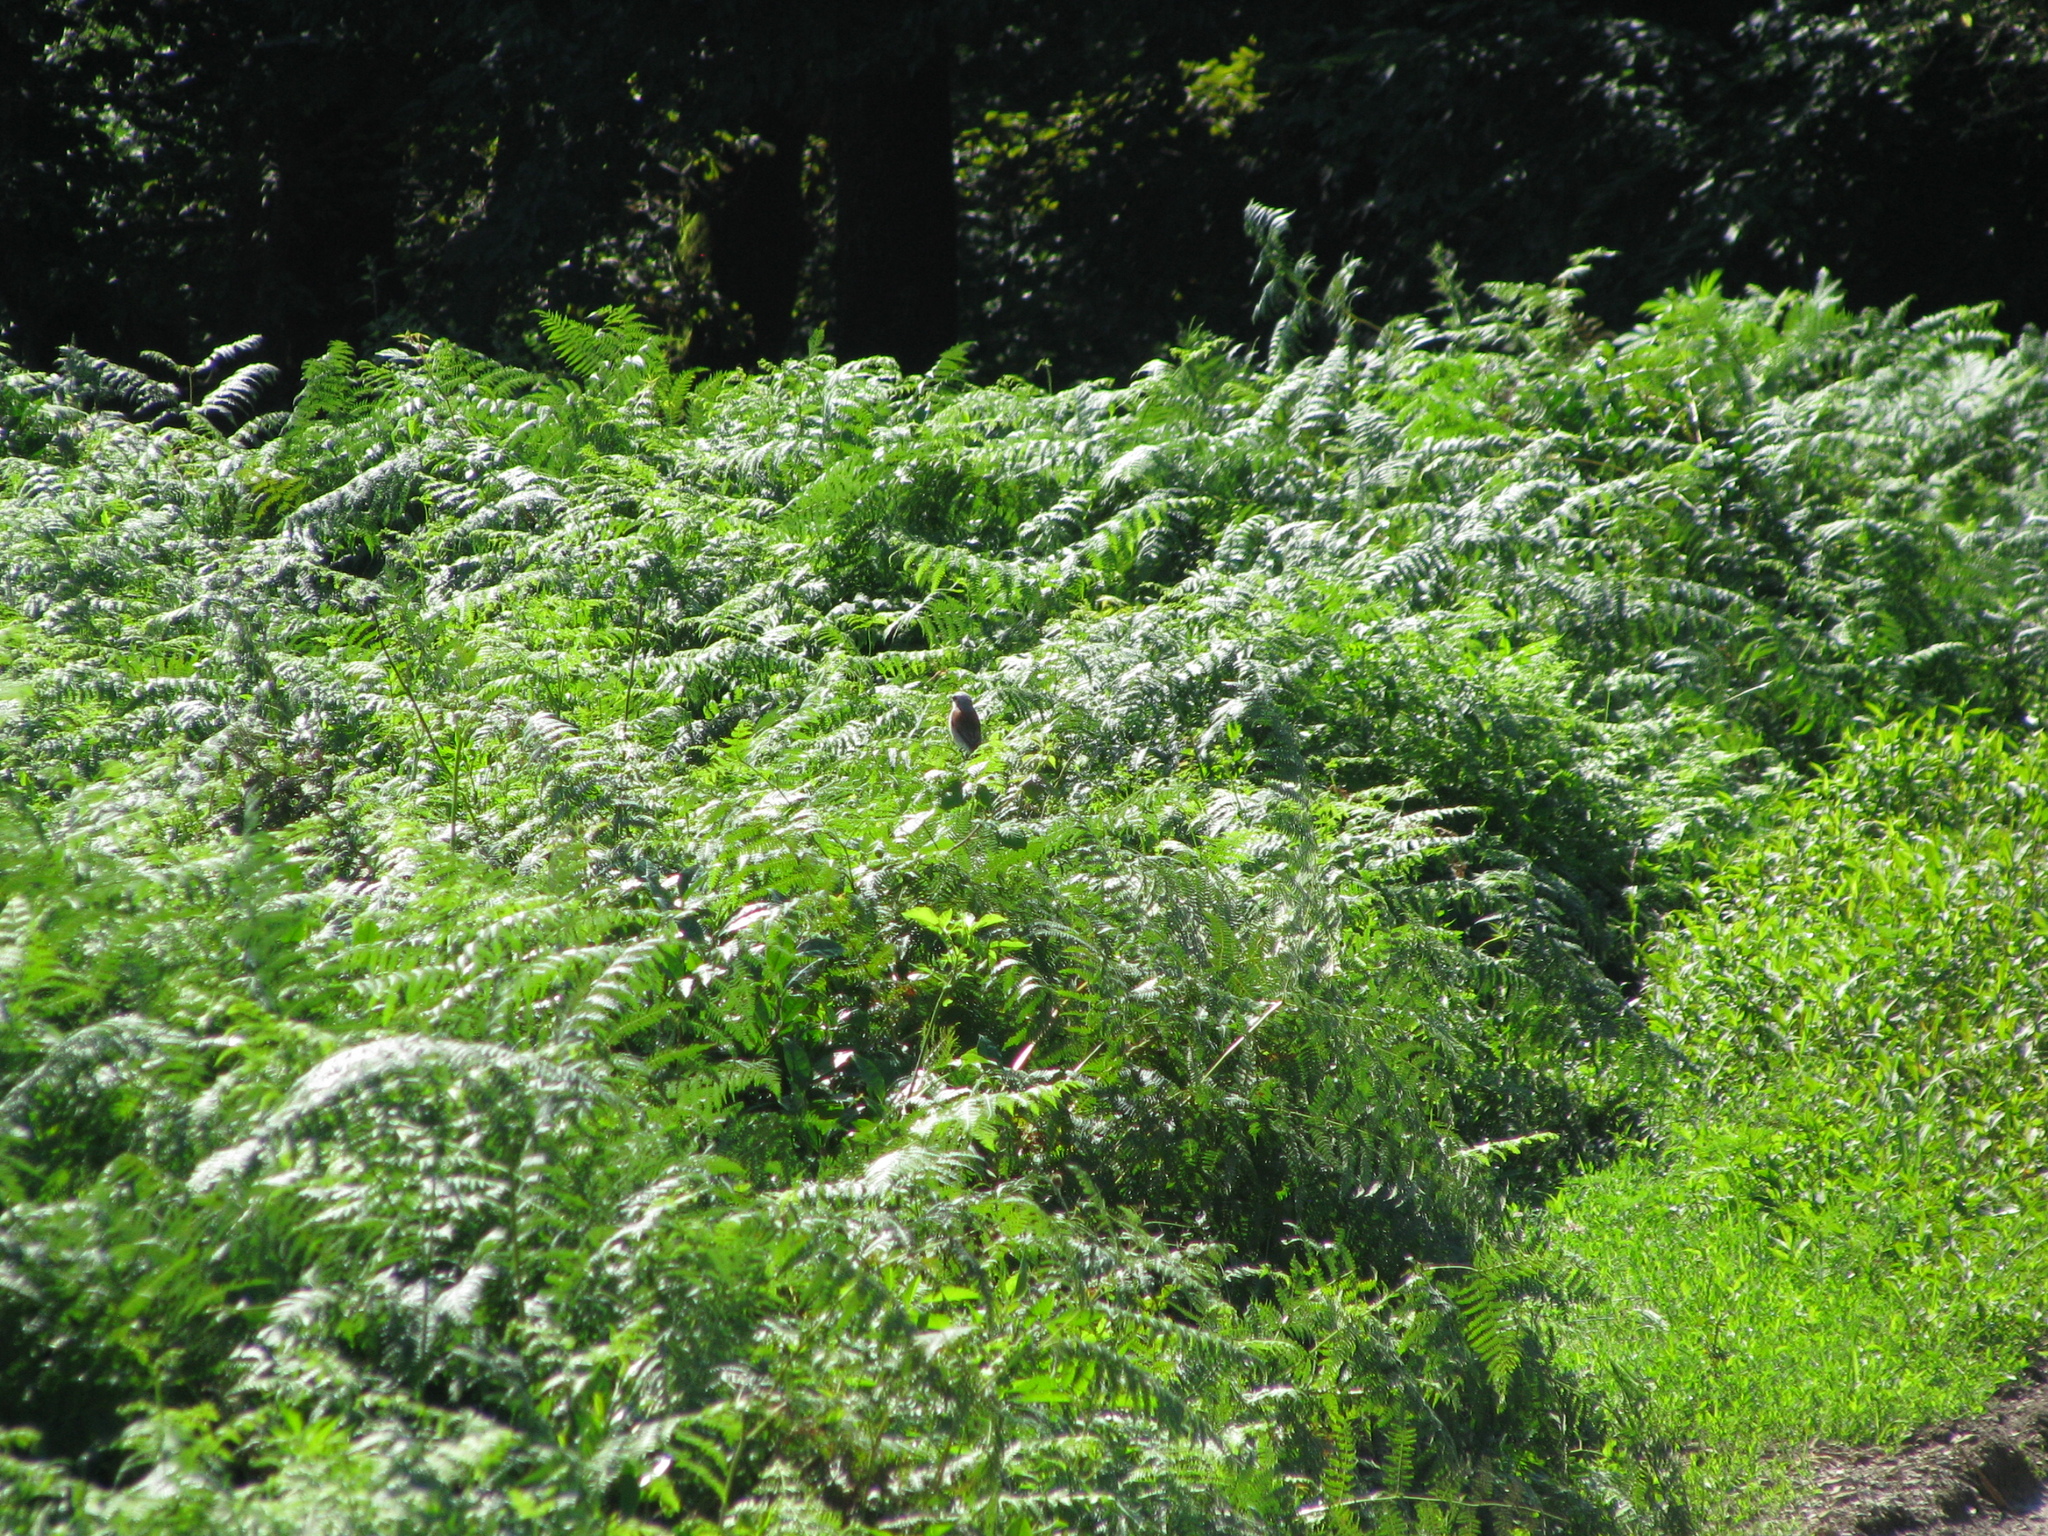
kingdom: Animalia
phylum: Chordata
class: Aves
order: Passeriformes
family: Laniidae
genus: Lanius
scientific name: Lanius collurio
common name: Red-backed shrike
